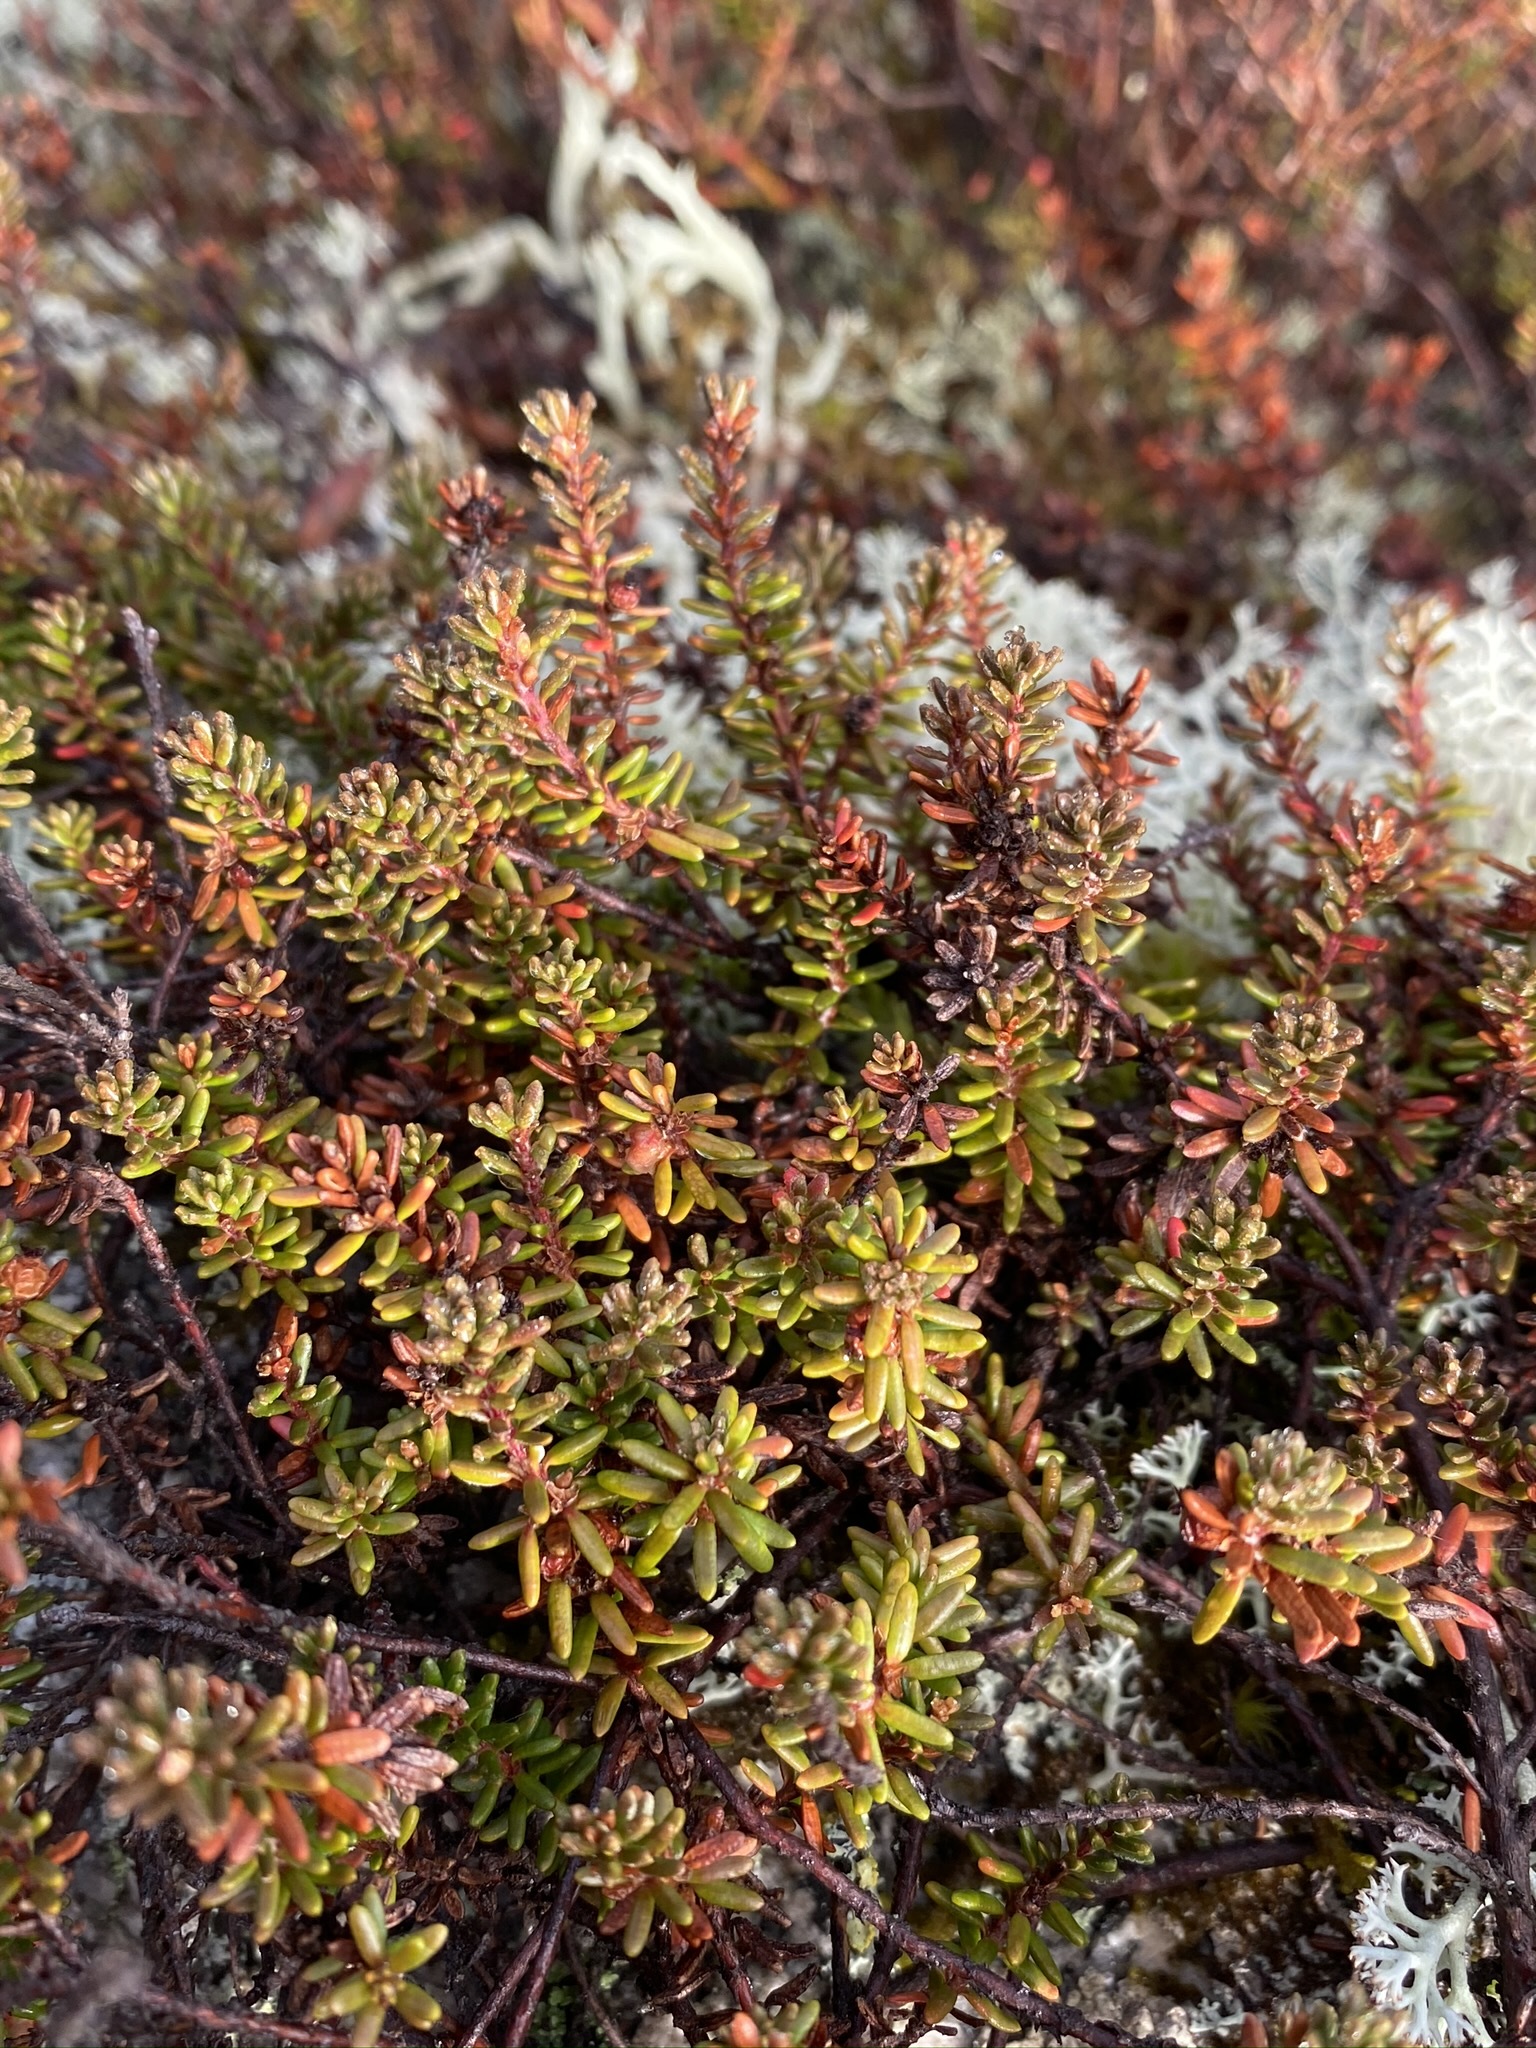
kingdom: Plantae
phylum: Tracheophyta
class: Magnoliopsida
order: Ericales
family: Ericaceae
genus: Empetrum
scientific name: Empetrum nigrum
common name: Black crowberry
